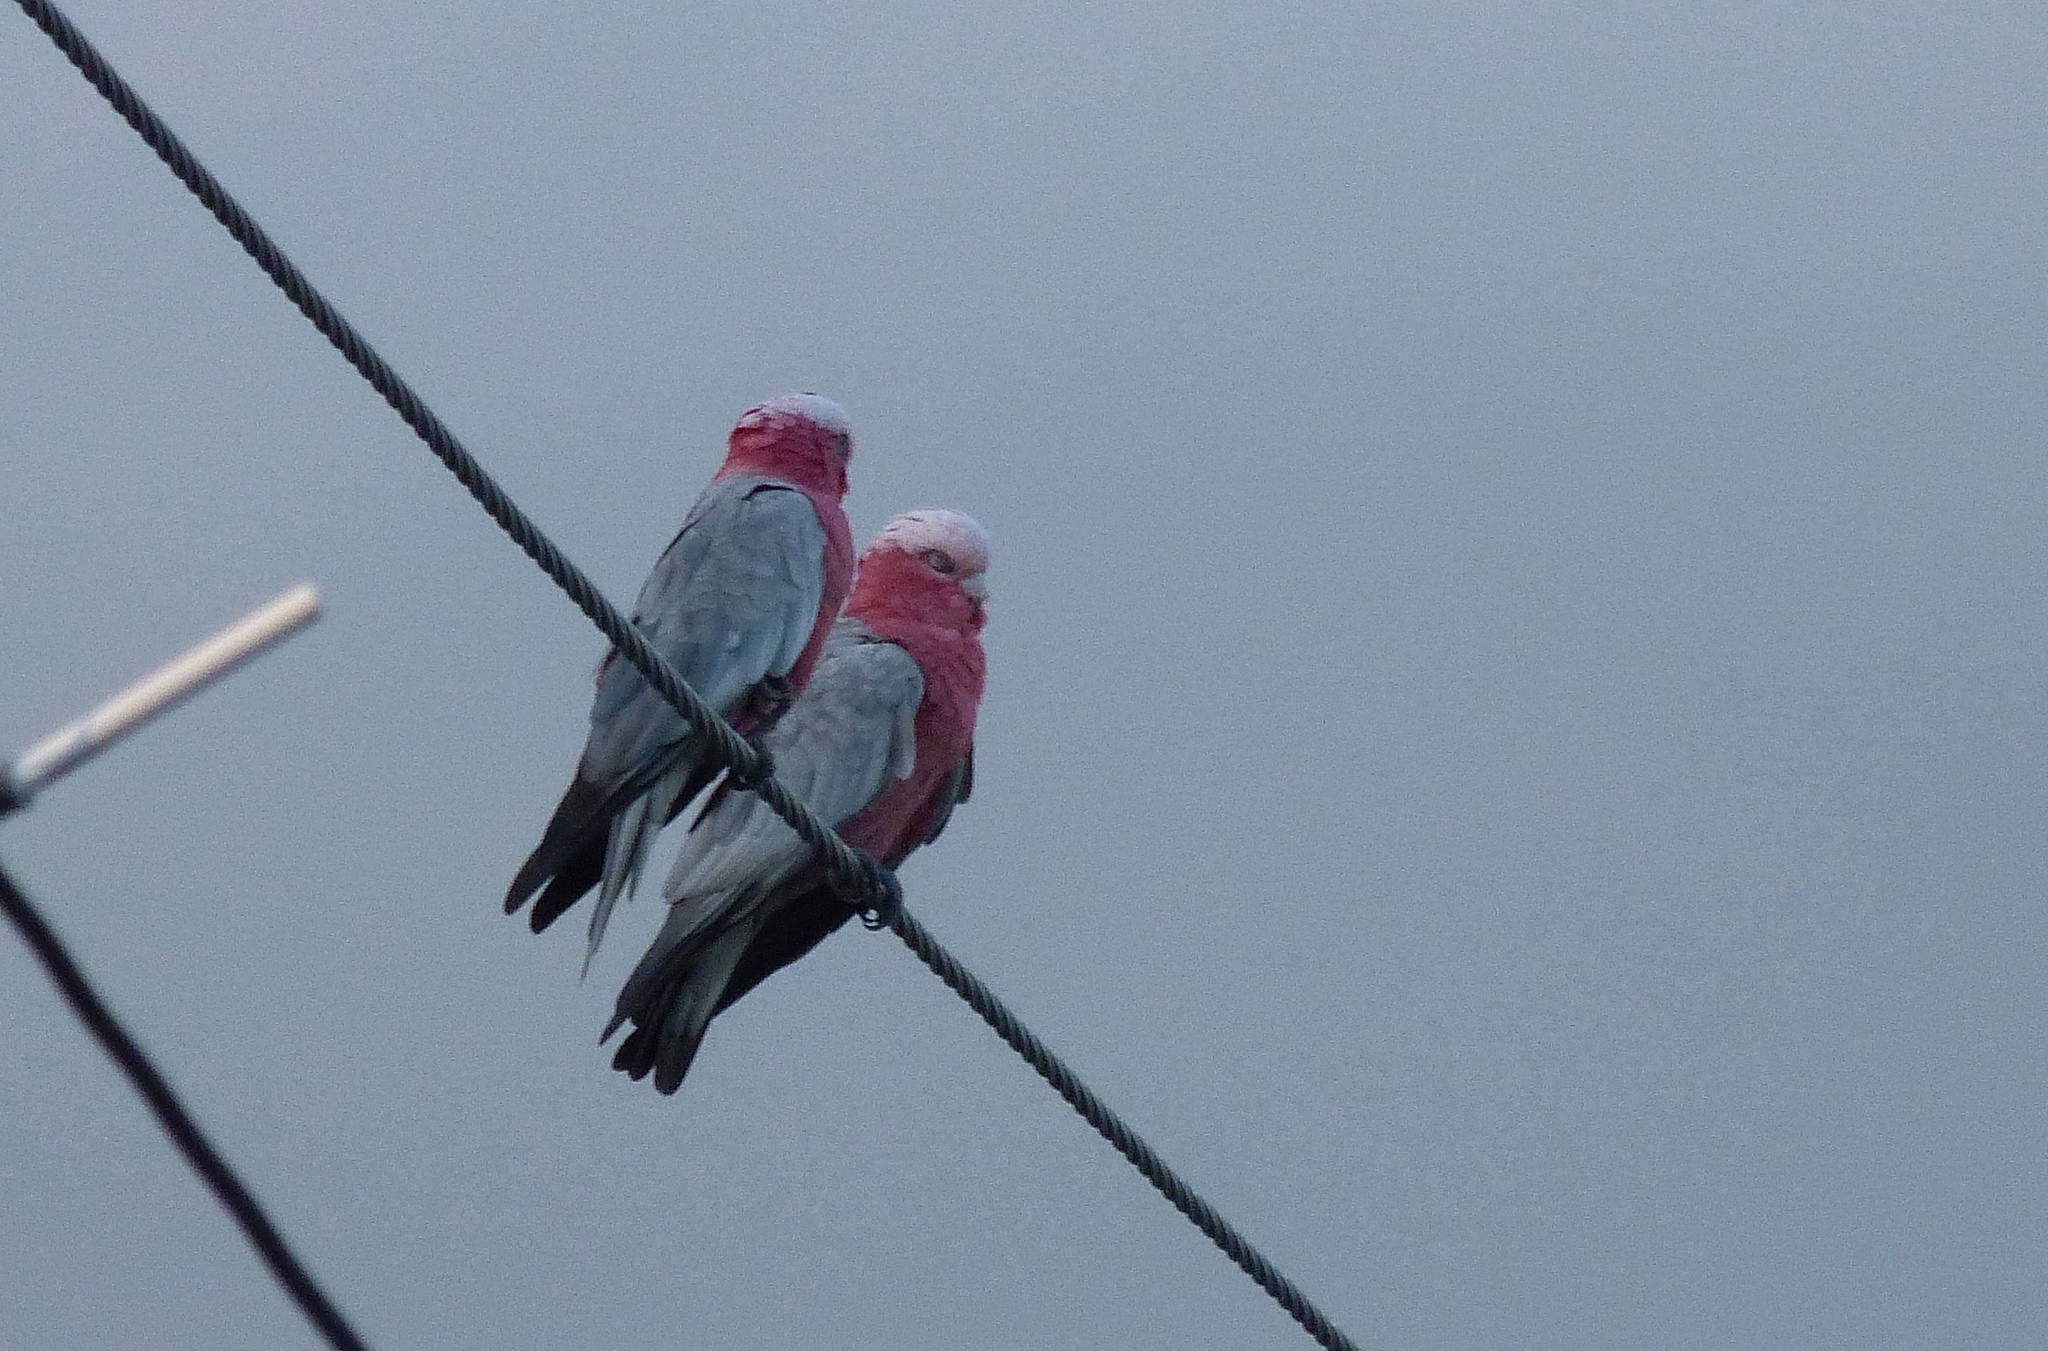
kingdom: Animalia
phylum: Chordata
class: Aves
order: Psittaciformes
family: Psittacidae
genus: Eolophus
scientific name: Eolophus roseicapilla
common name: Galah
